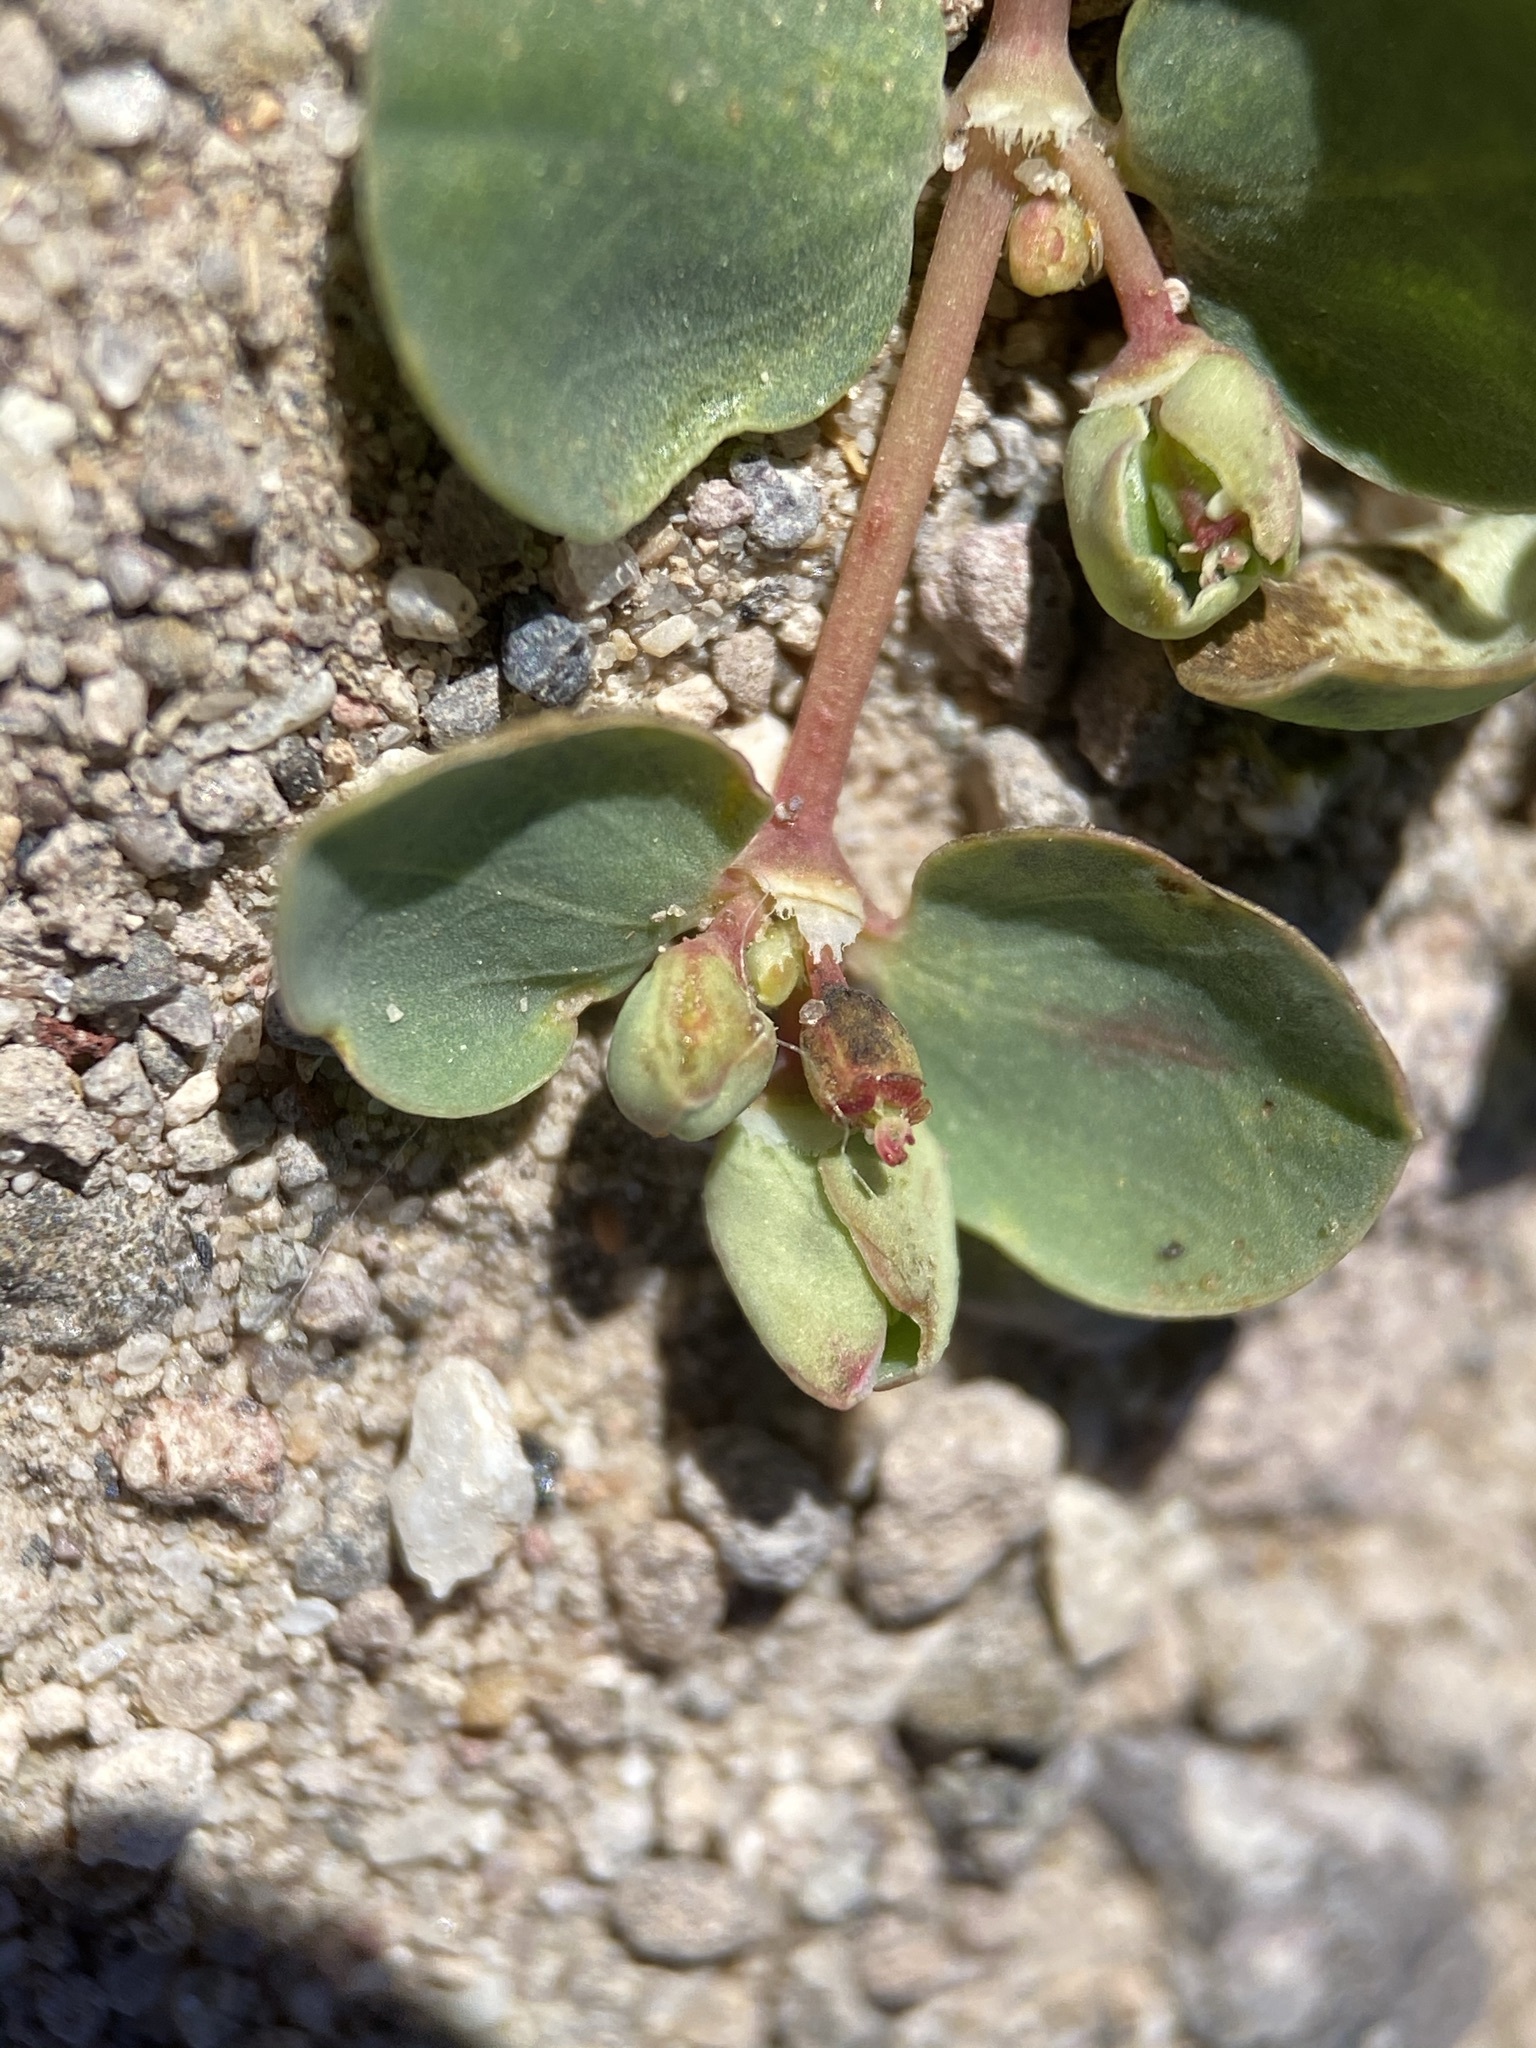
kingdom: Plantae
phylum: Tracheophyta
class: Magnoliopsida
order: Malpighiales
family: Euphorbiaceae
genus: Euphorbia
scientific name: Euphorbia albomarginata
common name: Whitemargin sandmat
